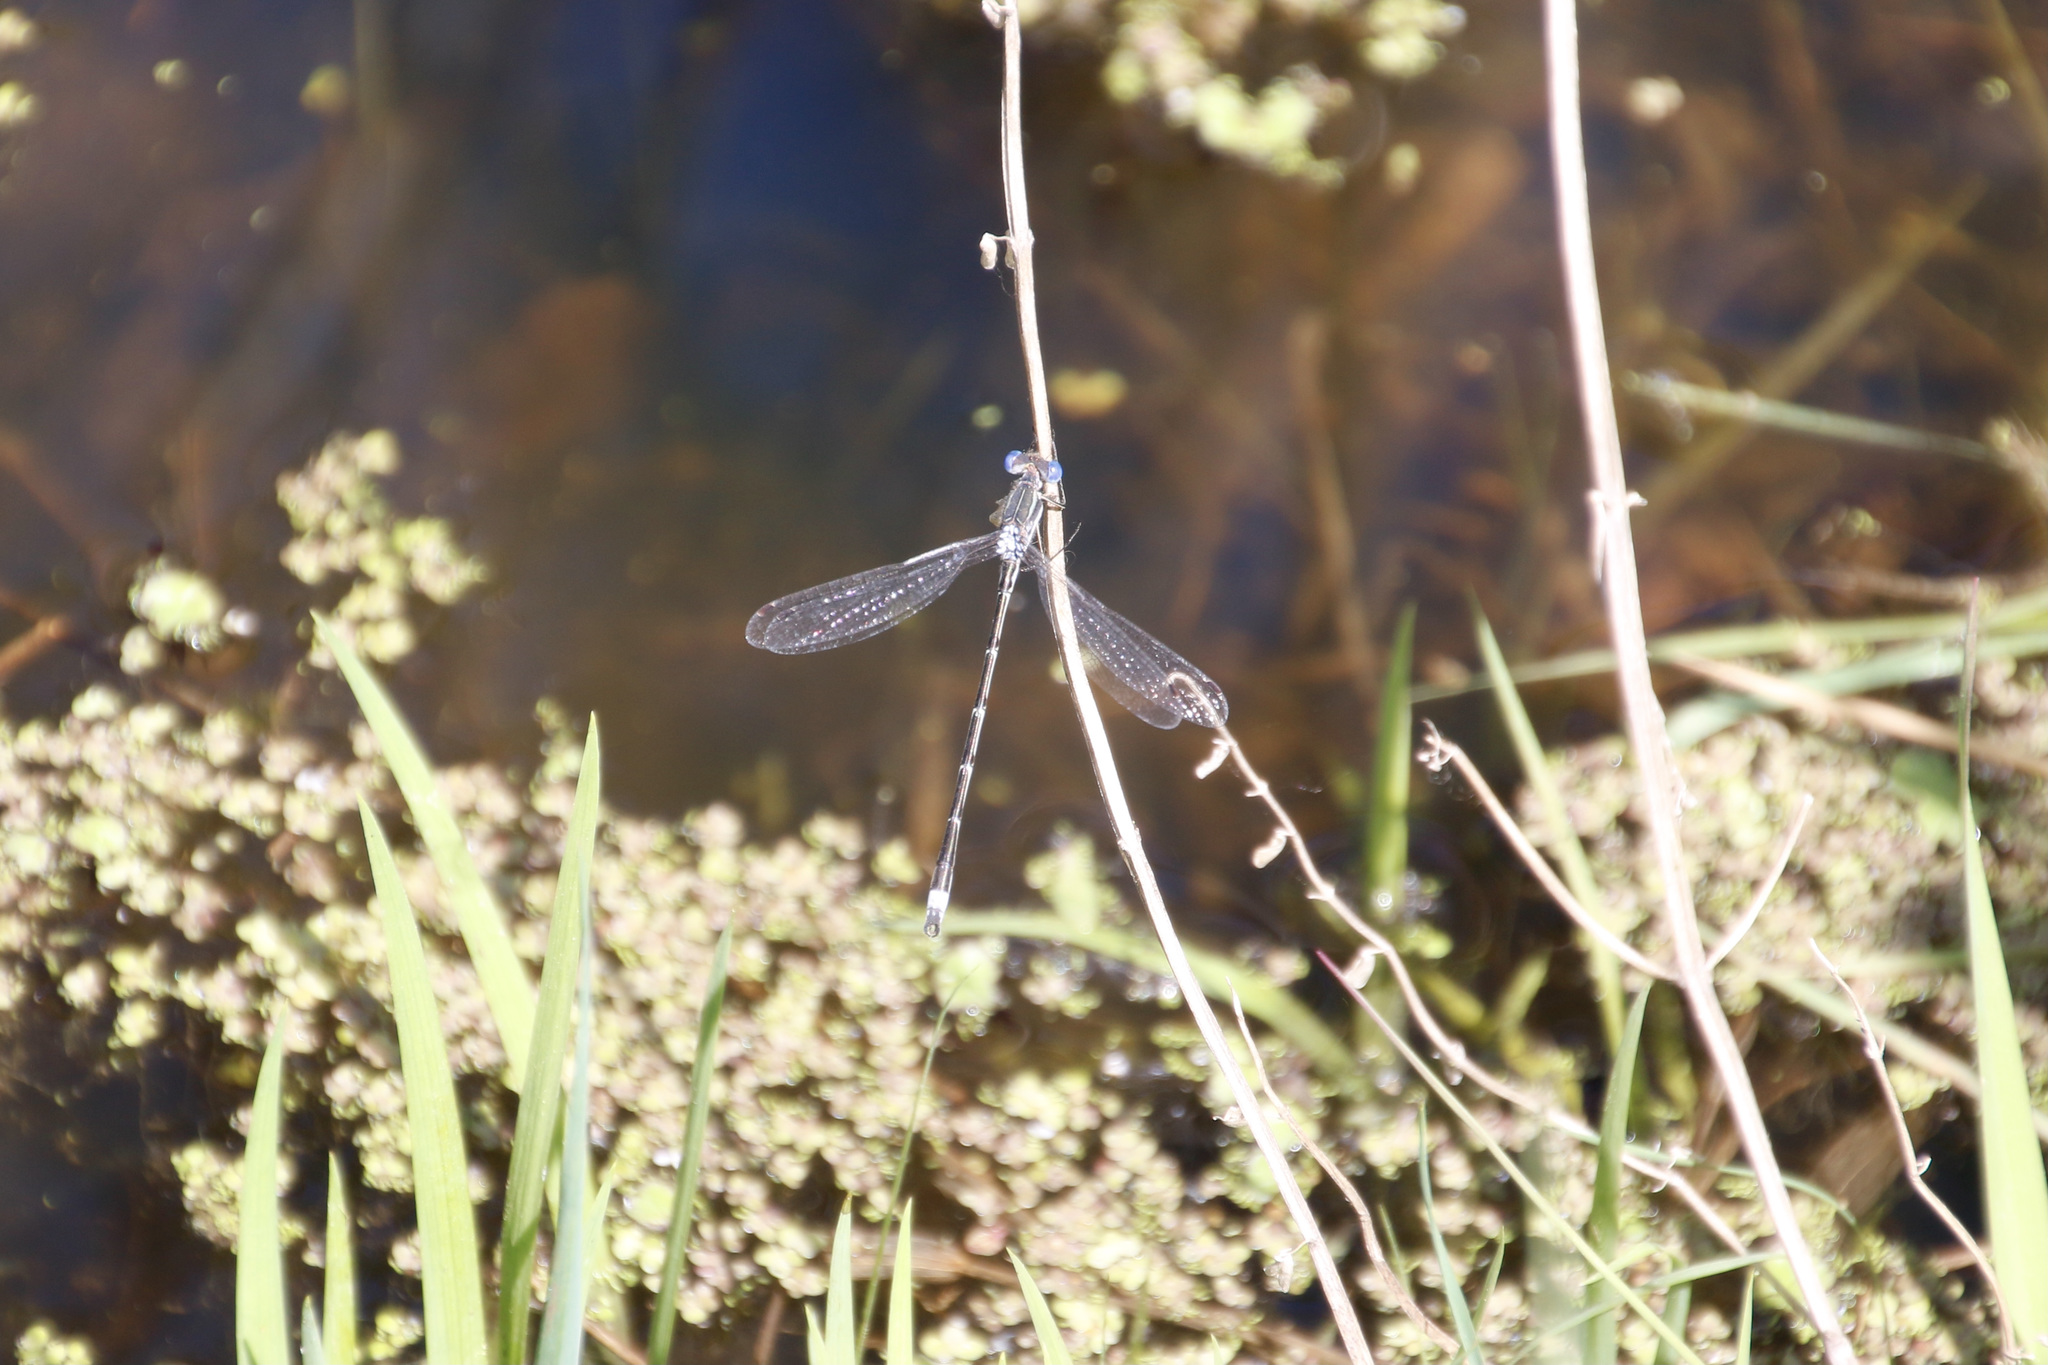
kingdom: Animalia
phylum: Arthropoda
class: Insecta
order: Odonata
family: Lestidae
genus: Lestes
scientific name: Lestes australis
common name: Southern spreadwing
